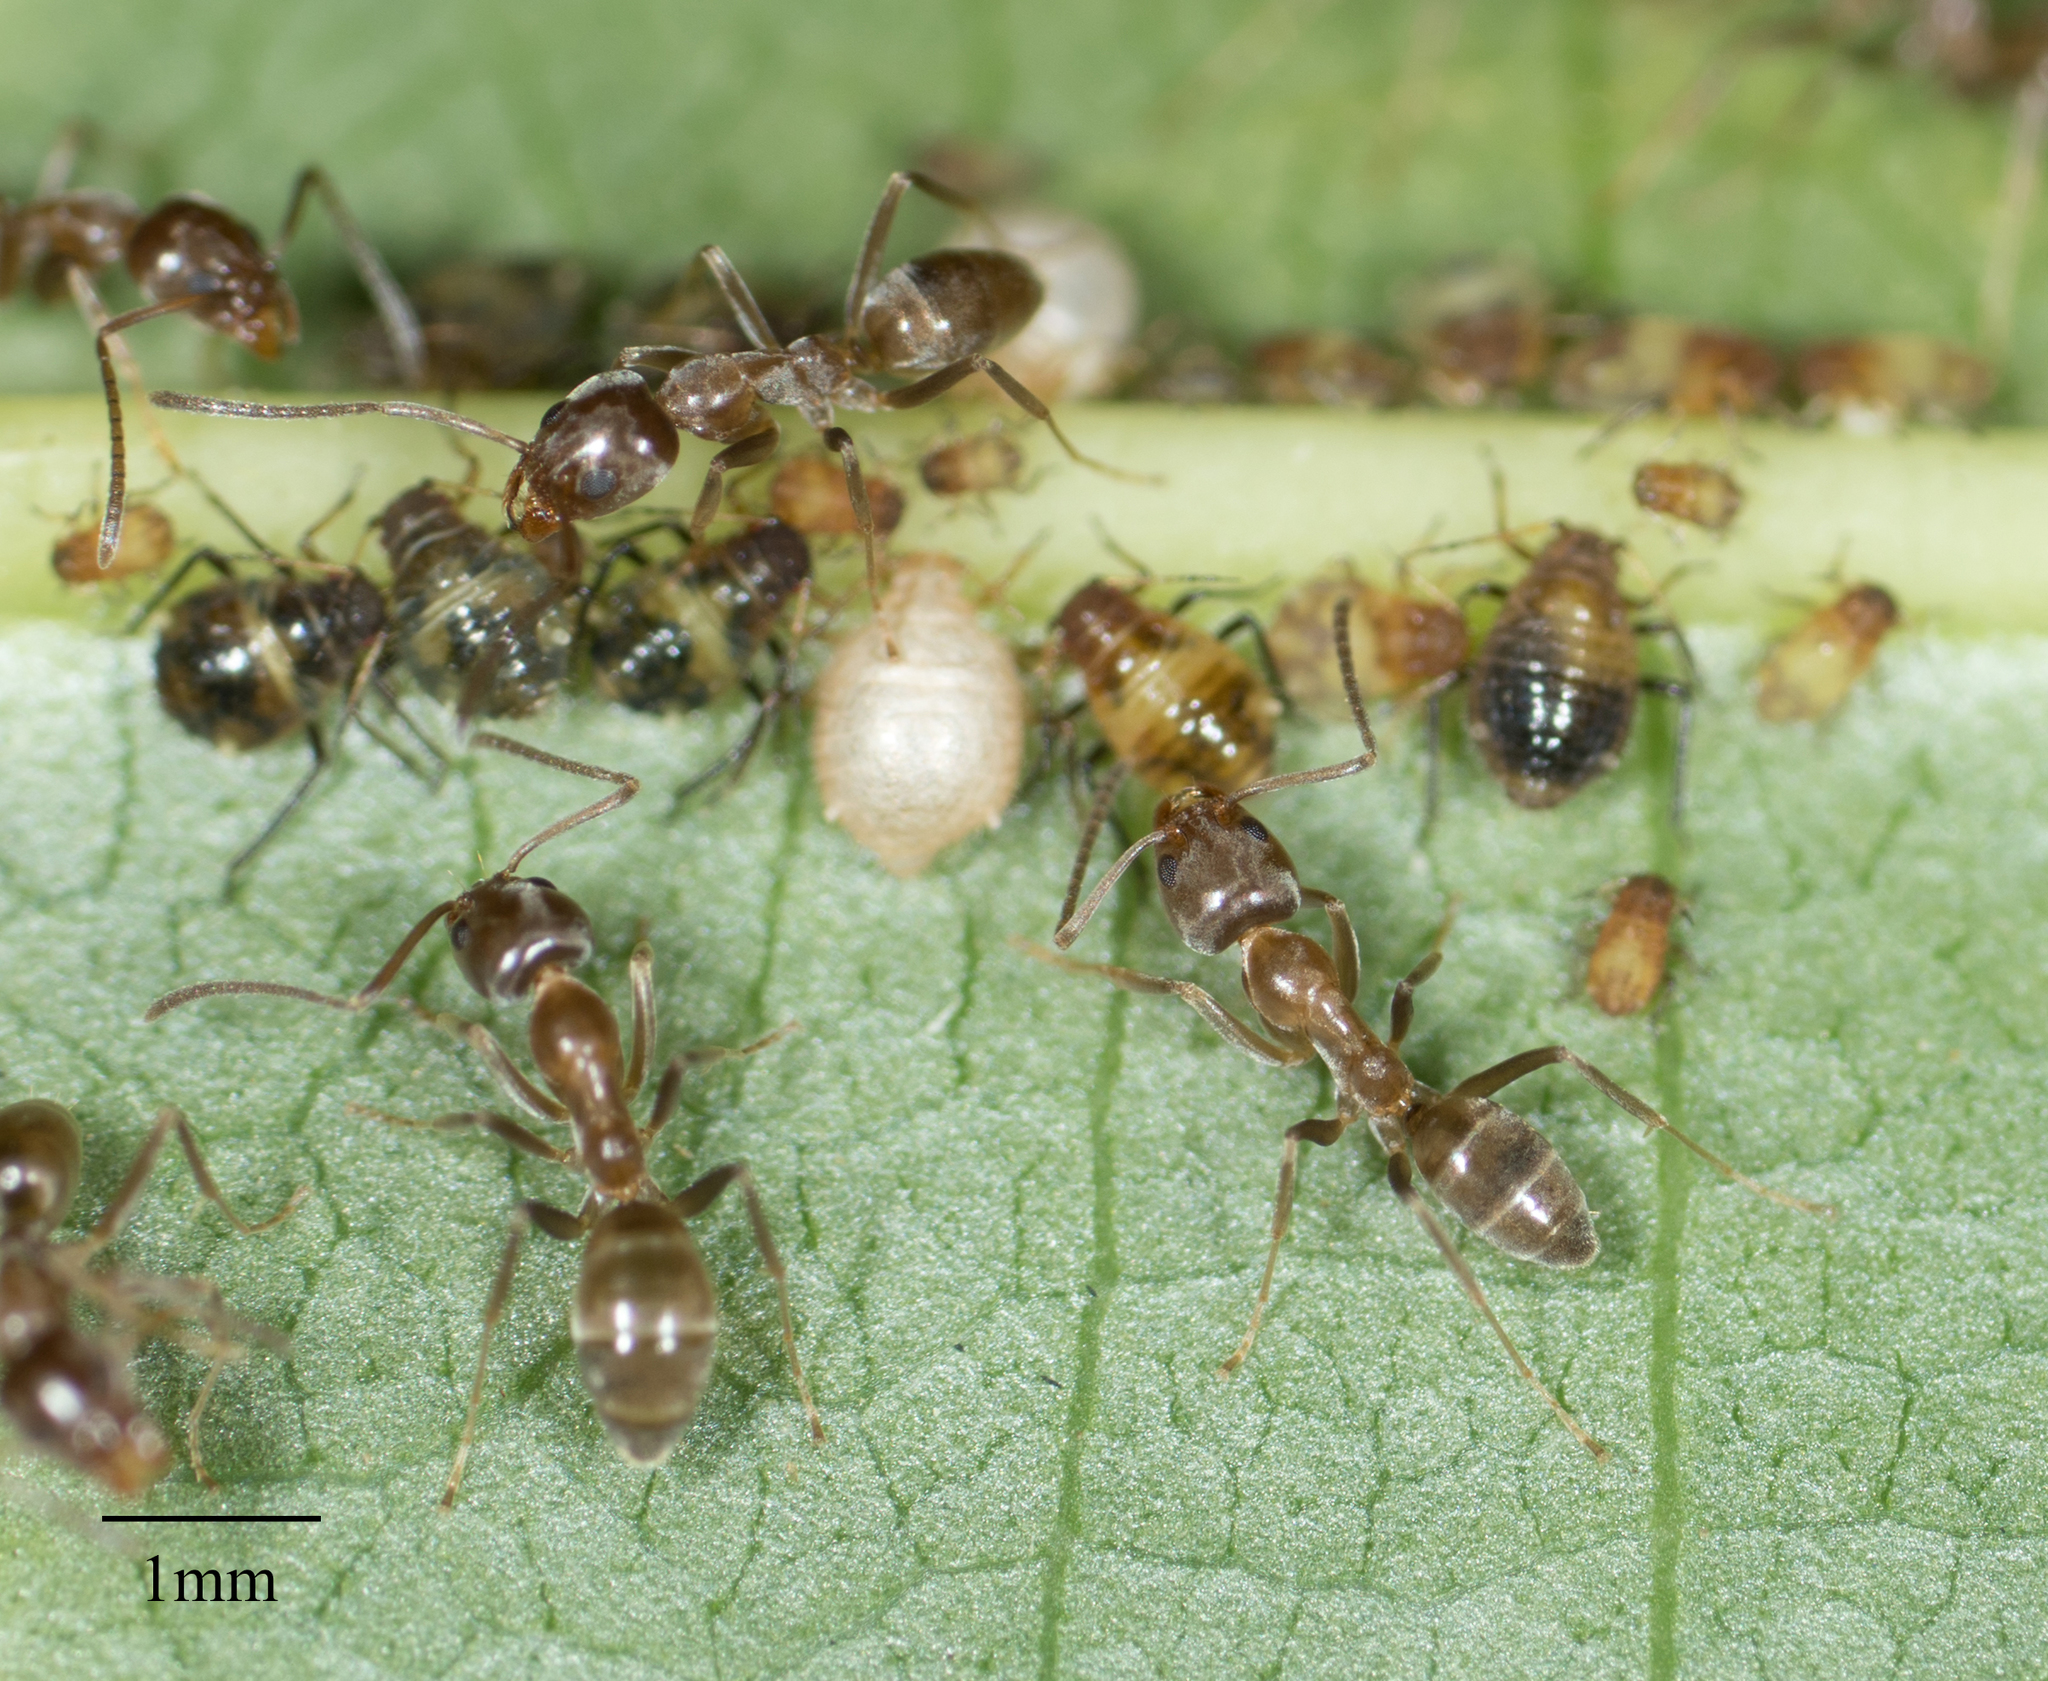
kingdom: Animalia
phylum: Arthropoda
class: Insecta
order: Hymenoptera
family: Formicidae
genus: Linepithema
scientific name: Linepithema humile
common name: Argentine ant
